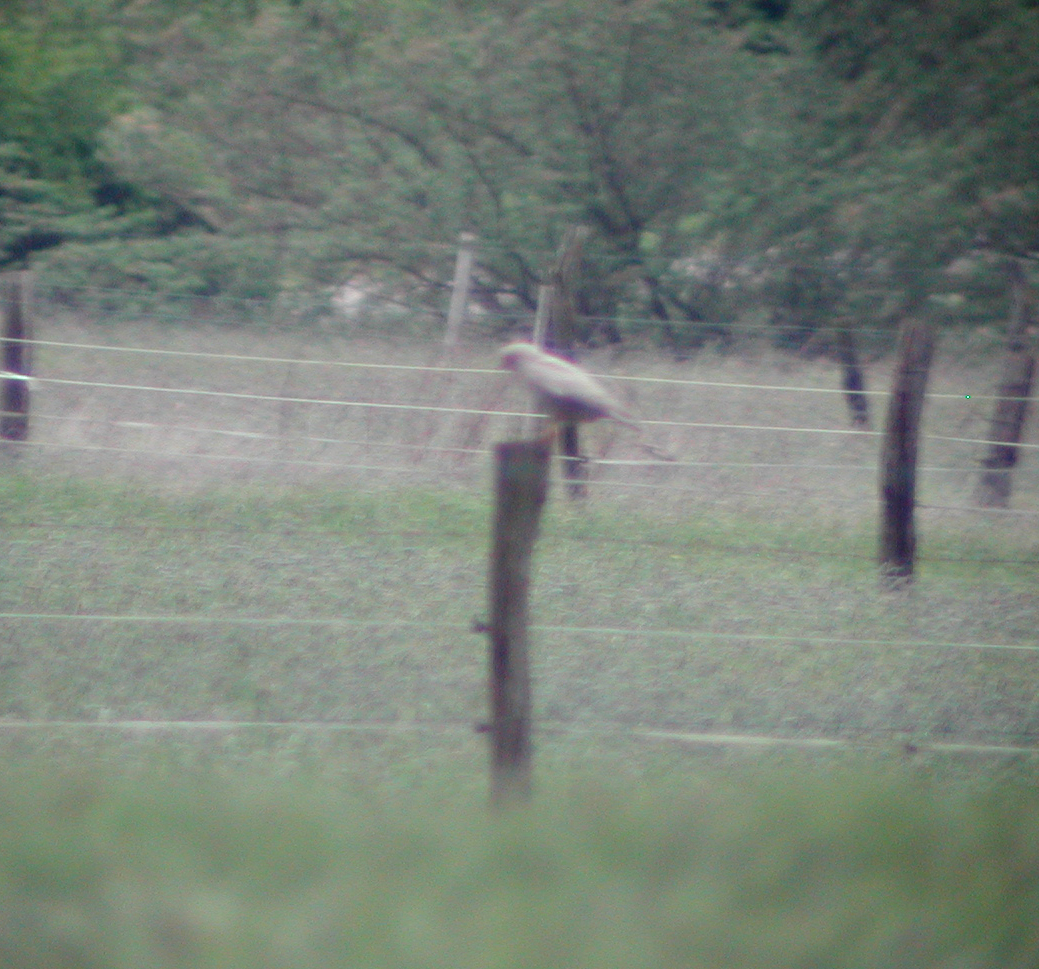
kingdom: Animalia
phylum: Chordata
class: Aves
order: Accipitriformes
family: Accipitridae
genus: Buteo
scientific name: Buteo buteo
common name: Common buzzard
